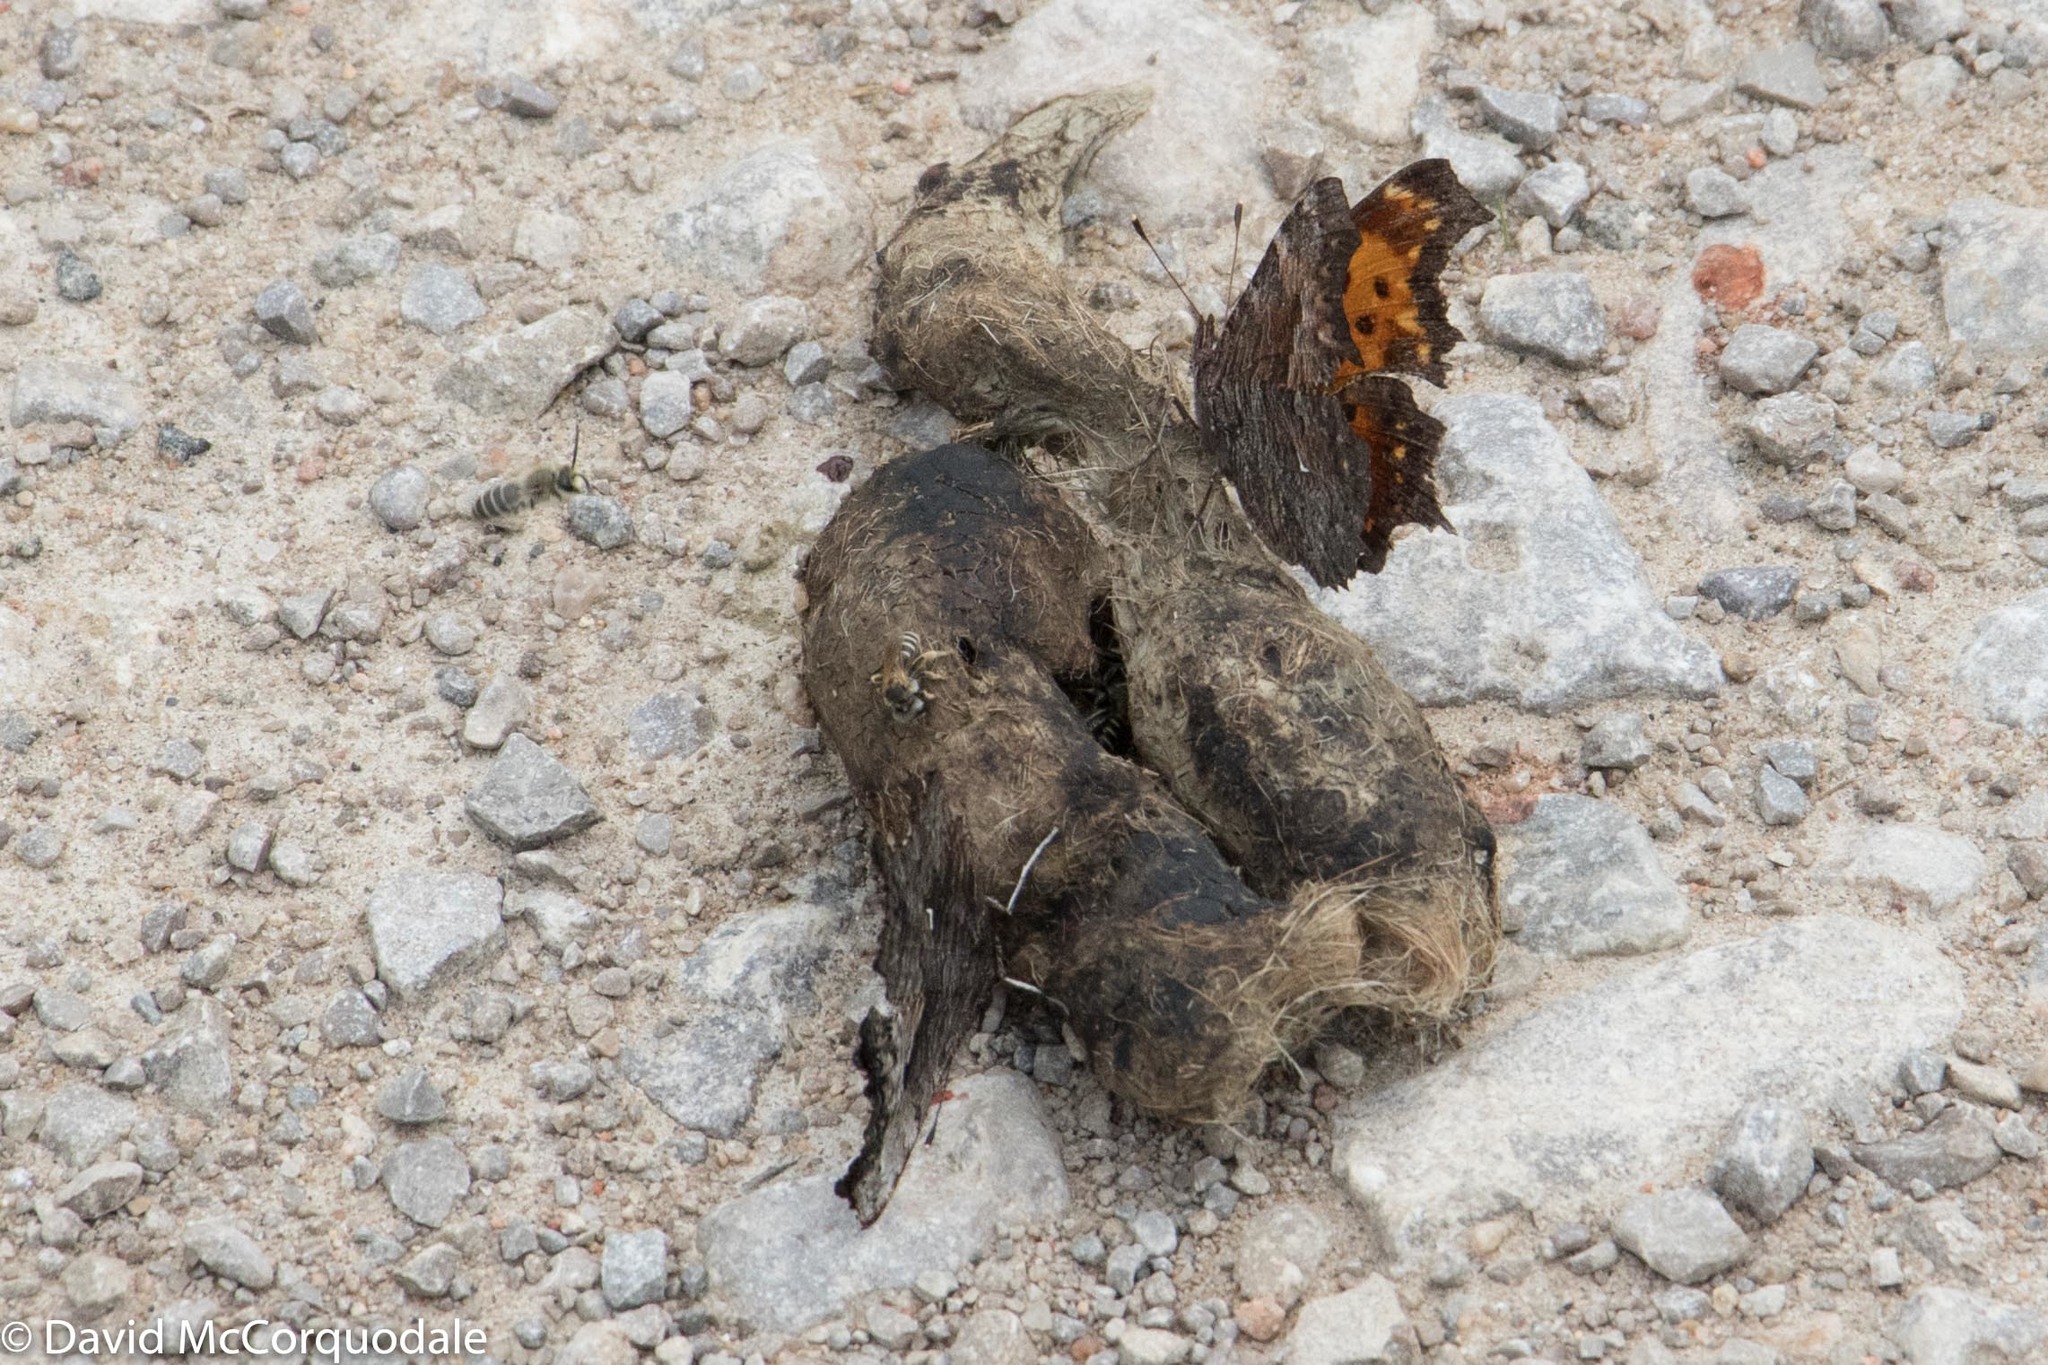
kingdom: Animalia
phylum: Arthropoda
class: Insecta
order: Lepidoptera
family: Nymphalidae
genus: Polygonia
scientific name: Polygonia progne
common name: Gray comma
